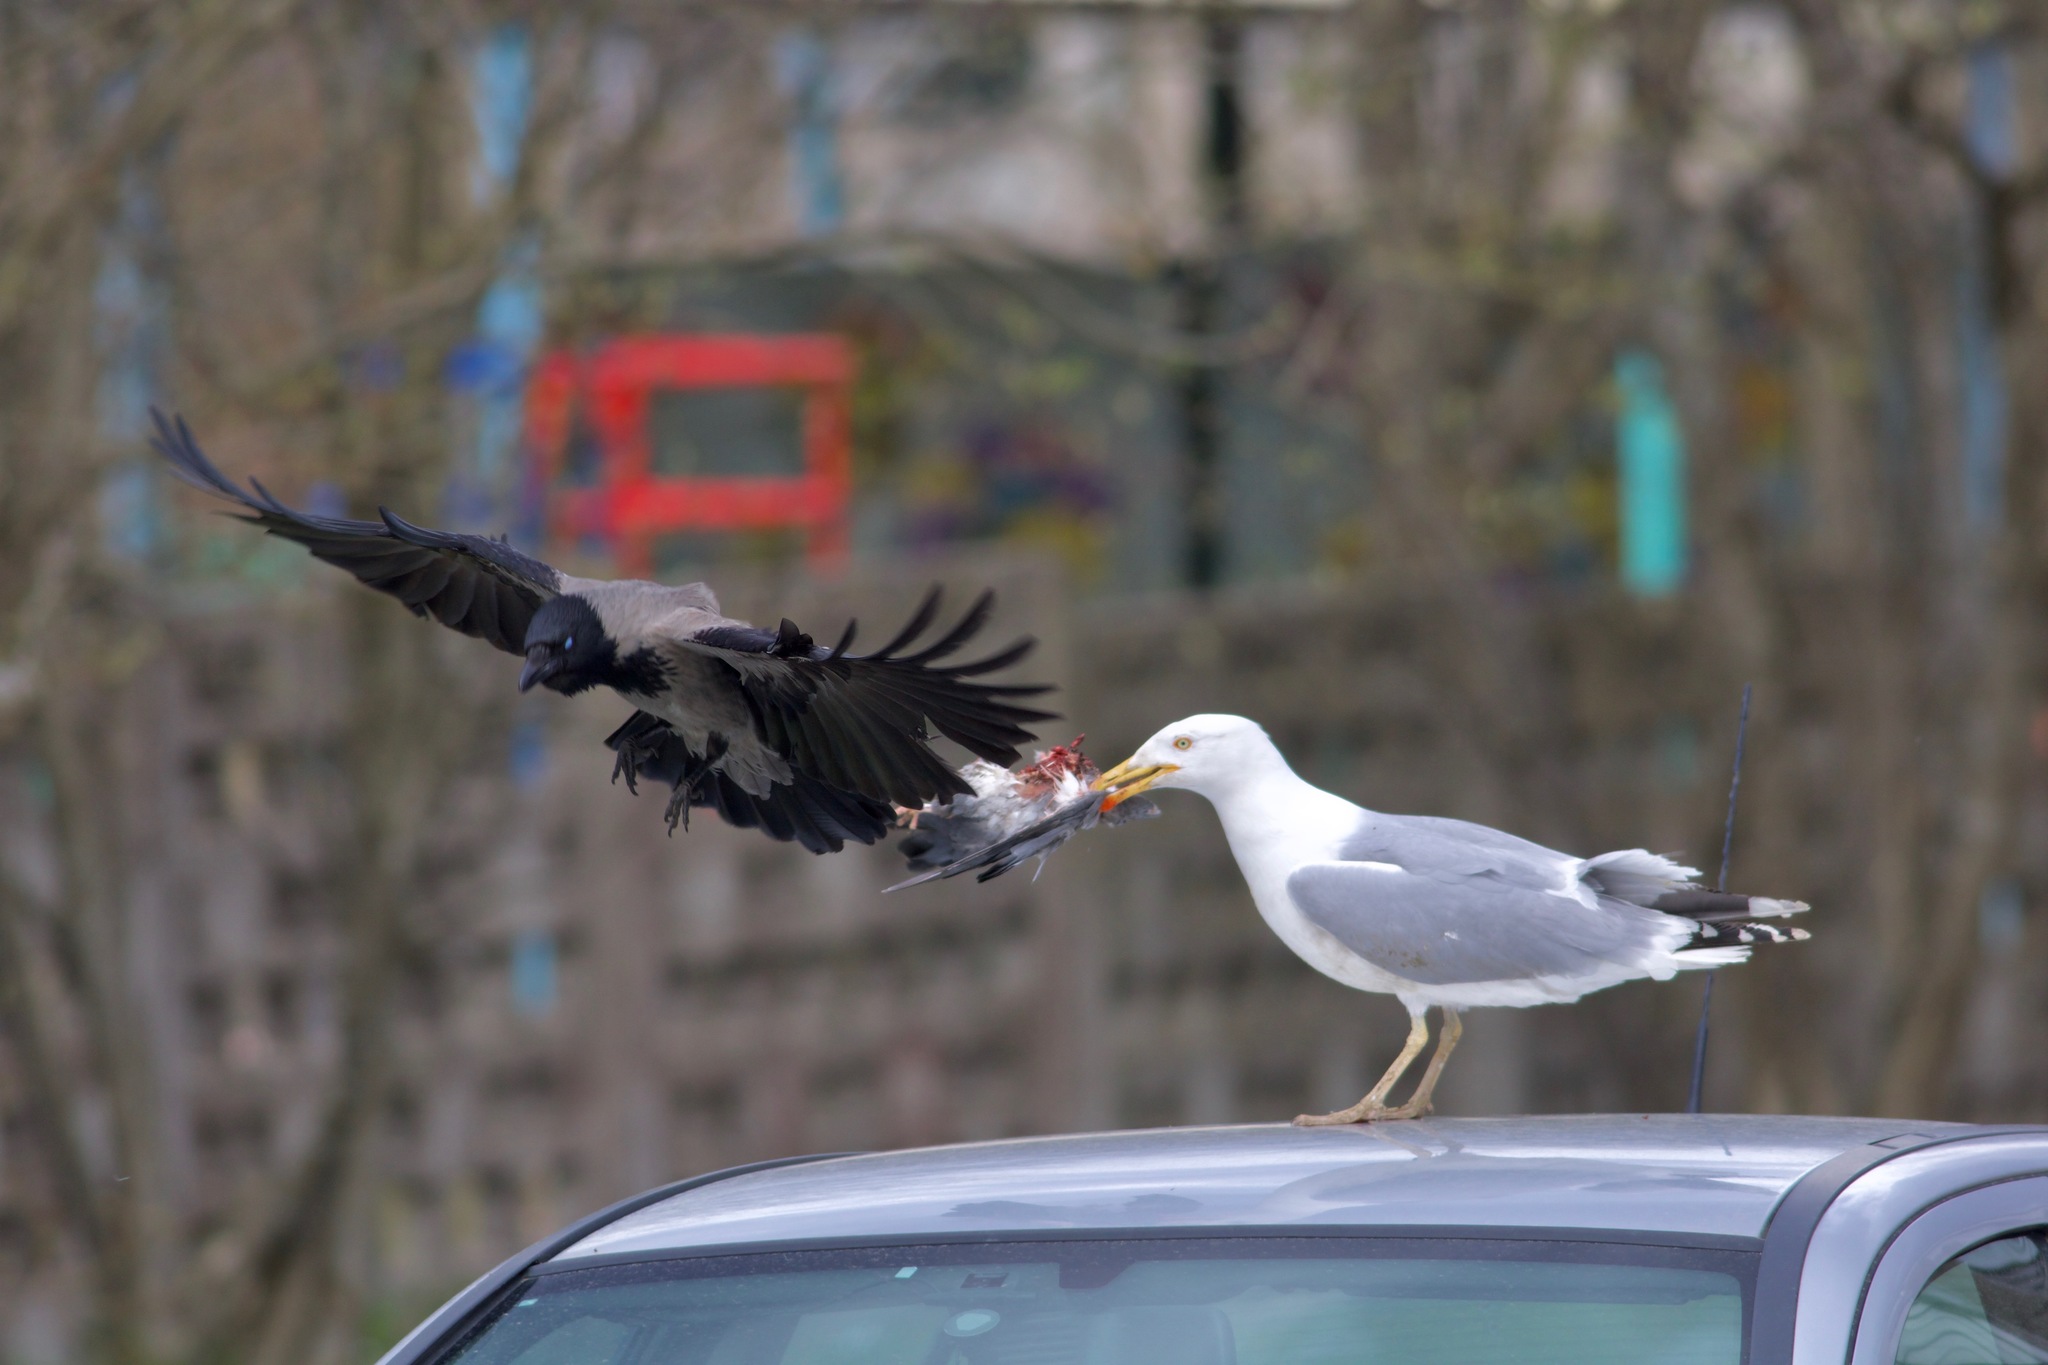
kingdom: Animalia
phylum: Chordata
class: Aves
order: Charadriiformes
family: Laridae
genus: Larus
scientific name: Larus argentatus
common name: Herring gull
